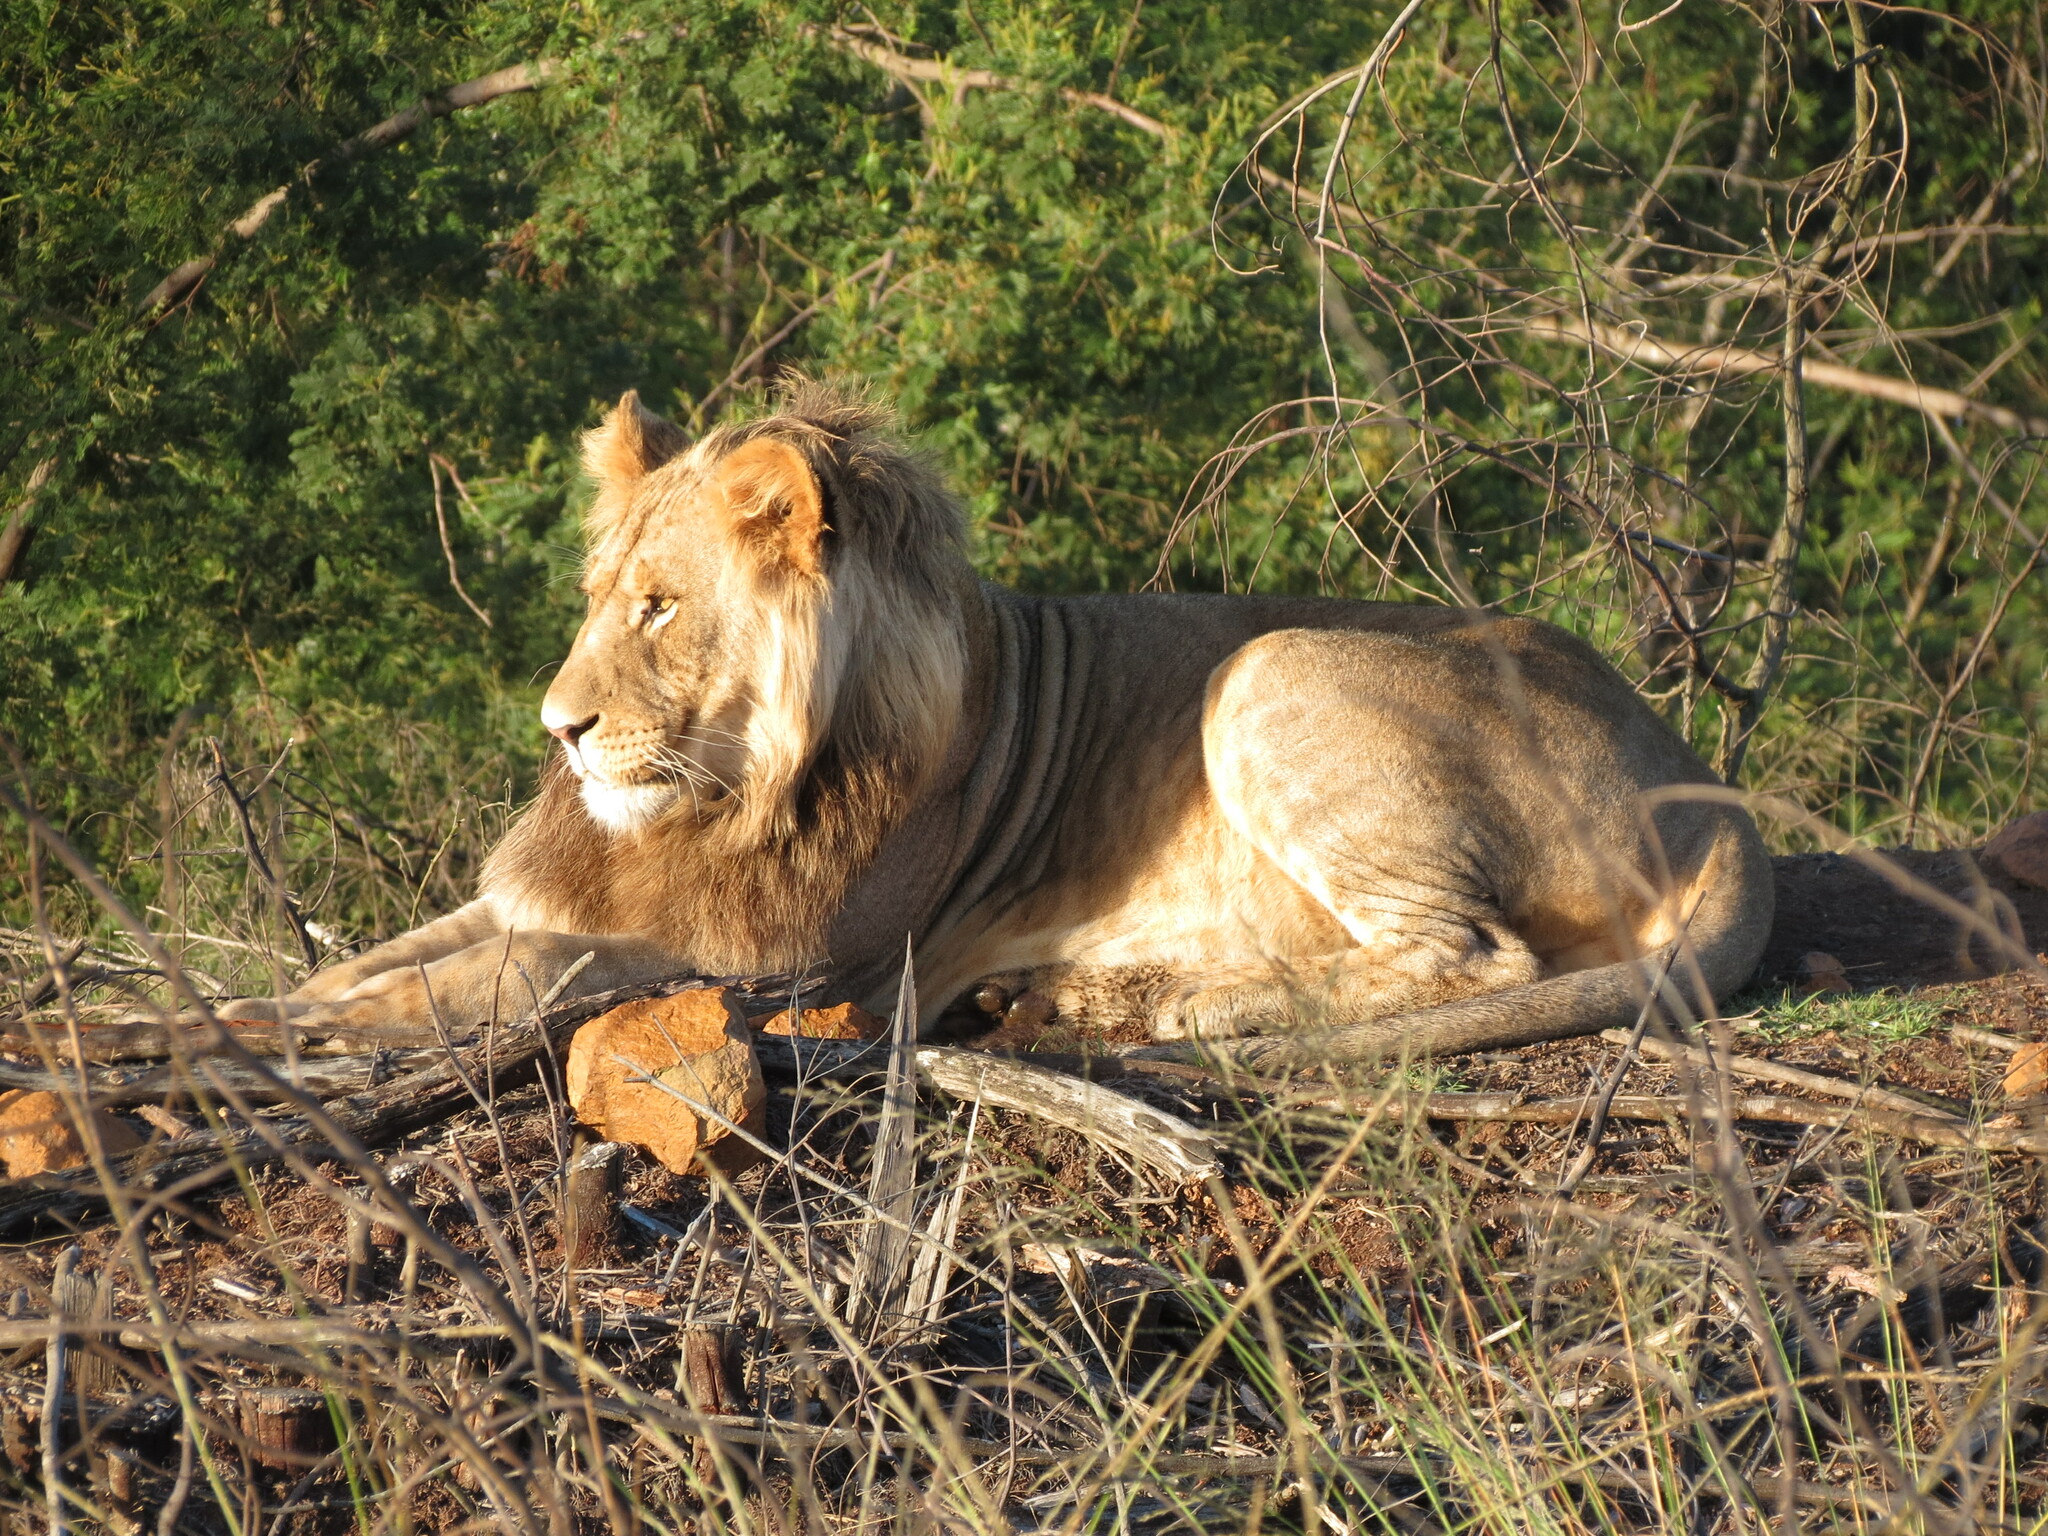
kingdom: Animalia
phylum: Chordata
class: Mammalia
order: Carnivora
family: Felidae
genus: Panthera
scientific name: Panthera leo
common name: Lion
